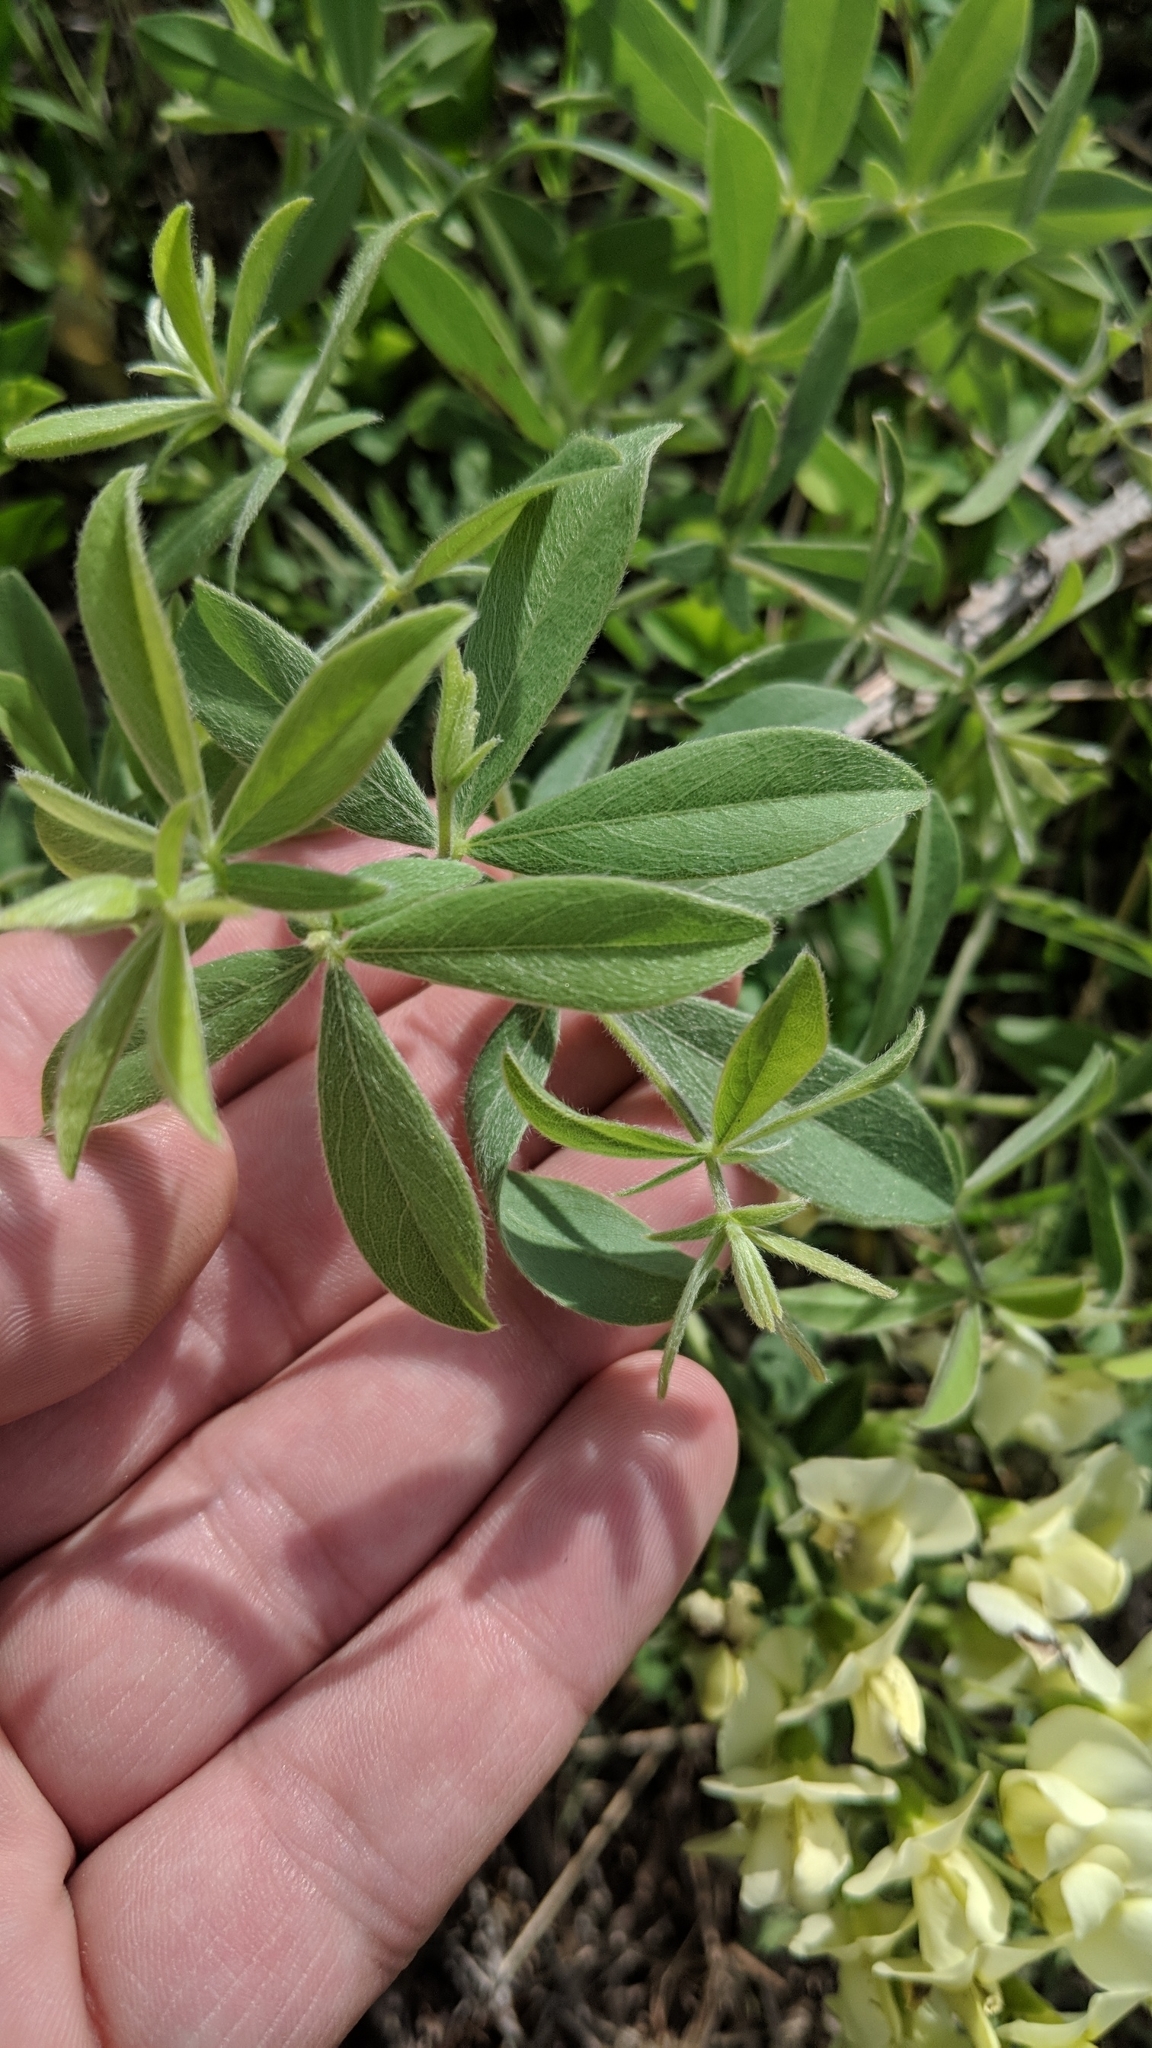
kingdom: Plantae
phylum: Tracheophyta
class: Magnoliopsida
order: Fabales
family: Fabaceae
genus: Baptisia
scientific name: Baptisia bracteata
